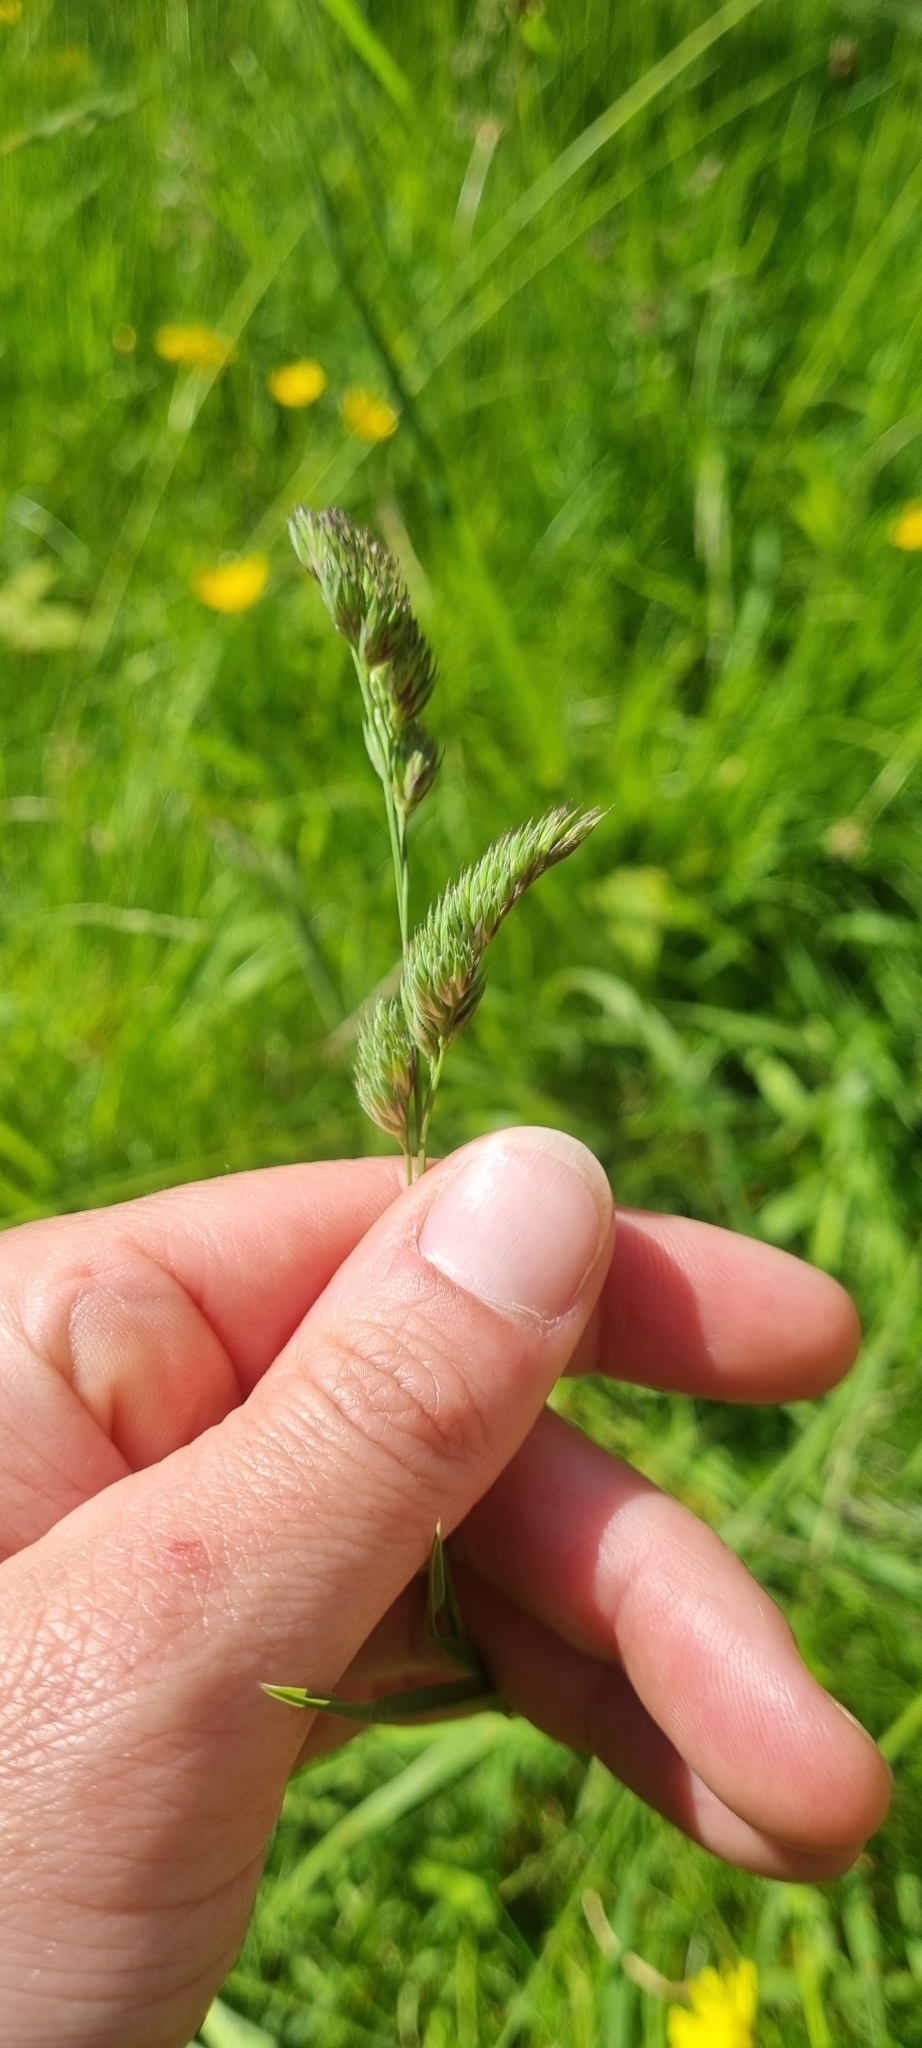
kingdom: Plantae
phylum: Tracheophyta
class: Liliopsida
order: Poales
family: Poaceae
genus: Dactylis
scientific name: Dactylis glomerata
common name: Orchardgrass
